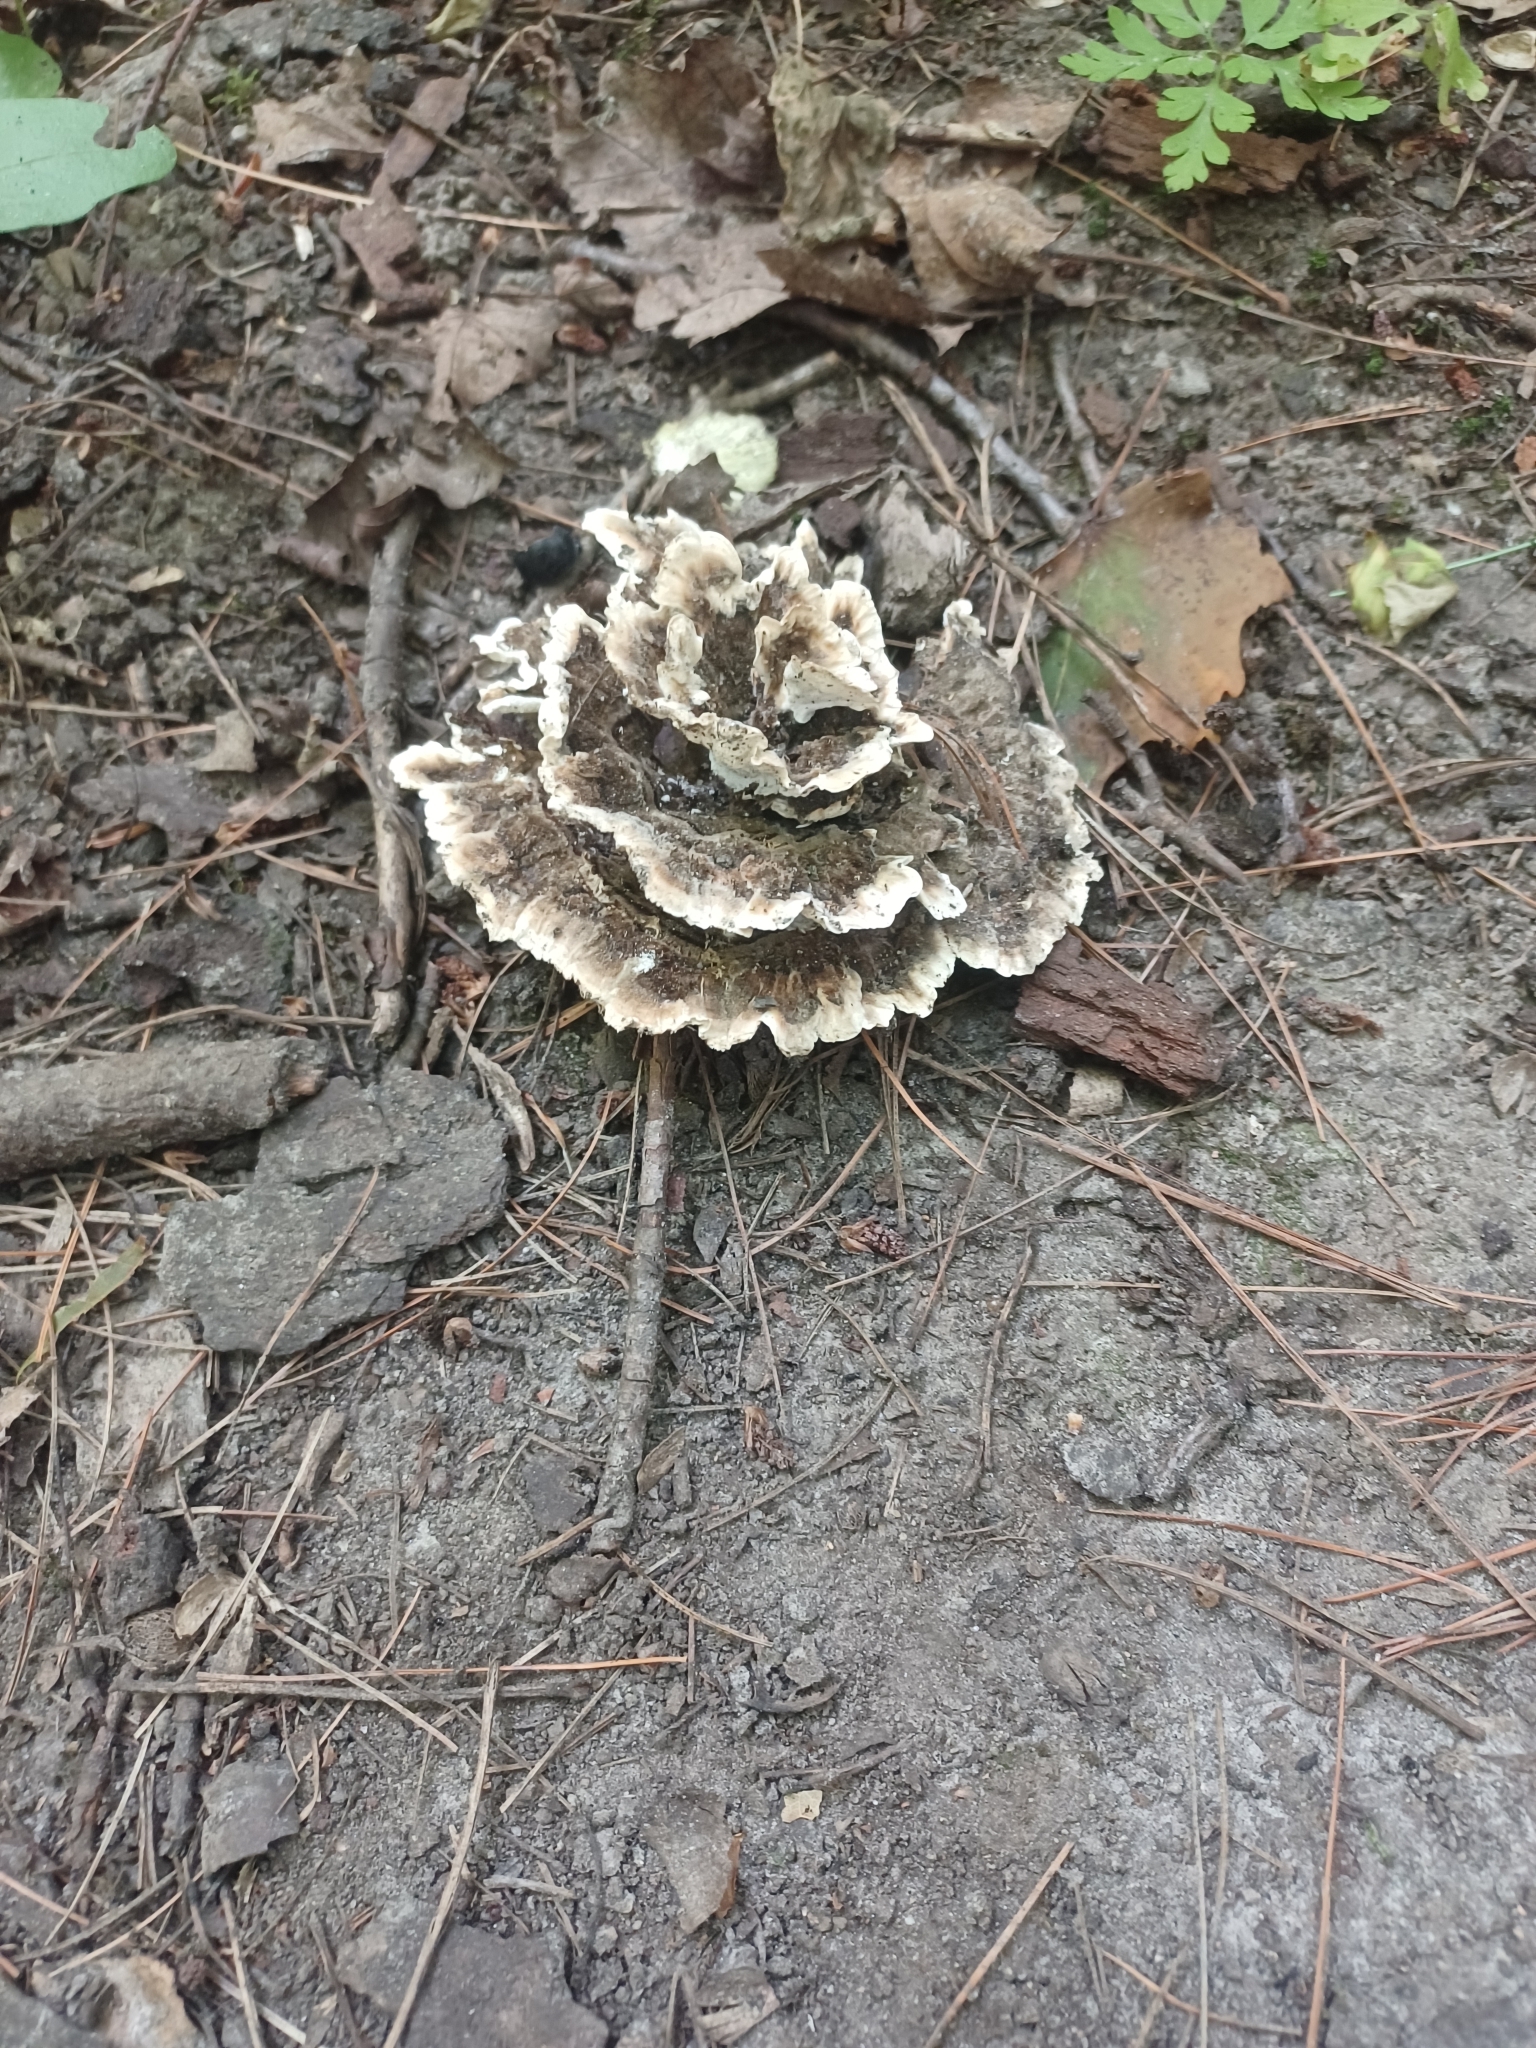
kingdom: Fungi
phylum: Basidiomycota
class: Agaricomycetes
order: Thelephorales
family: Thelephoraceae
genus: Thelephora
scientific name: Thelephora terrestris
